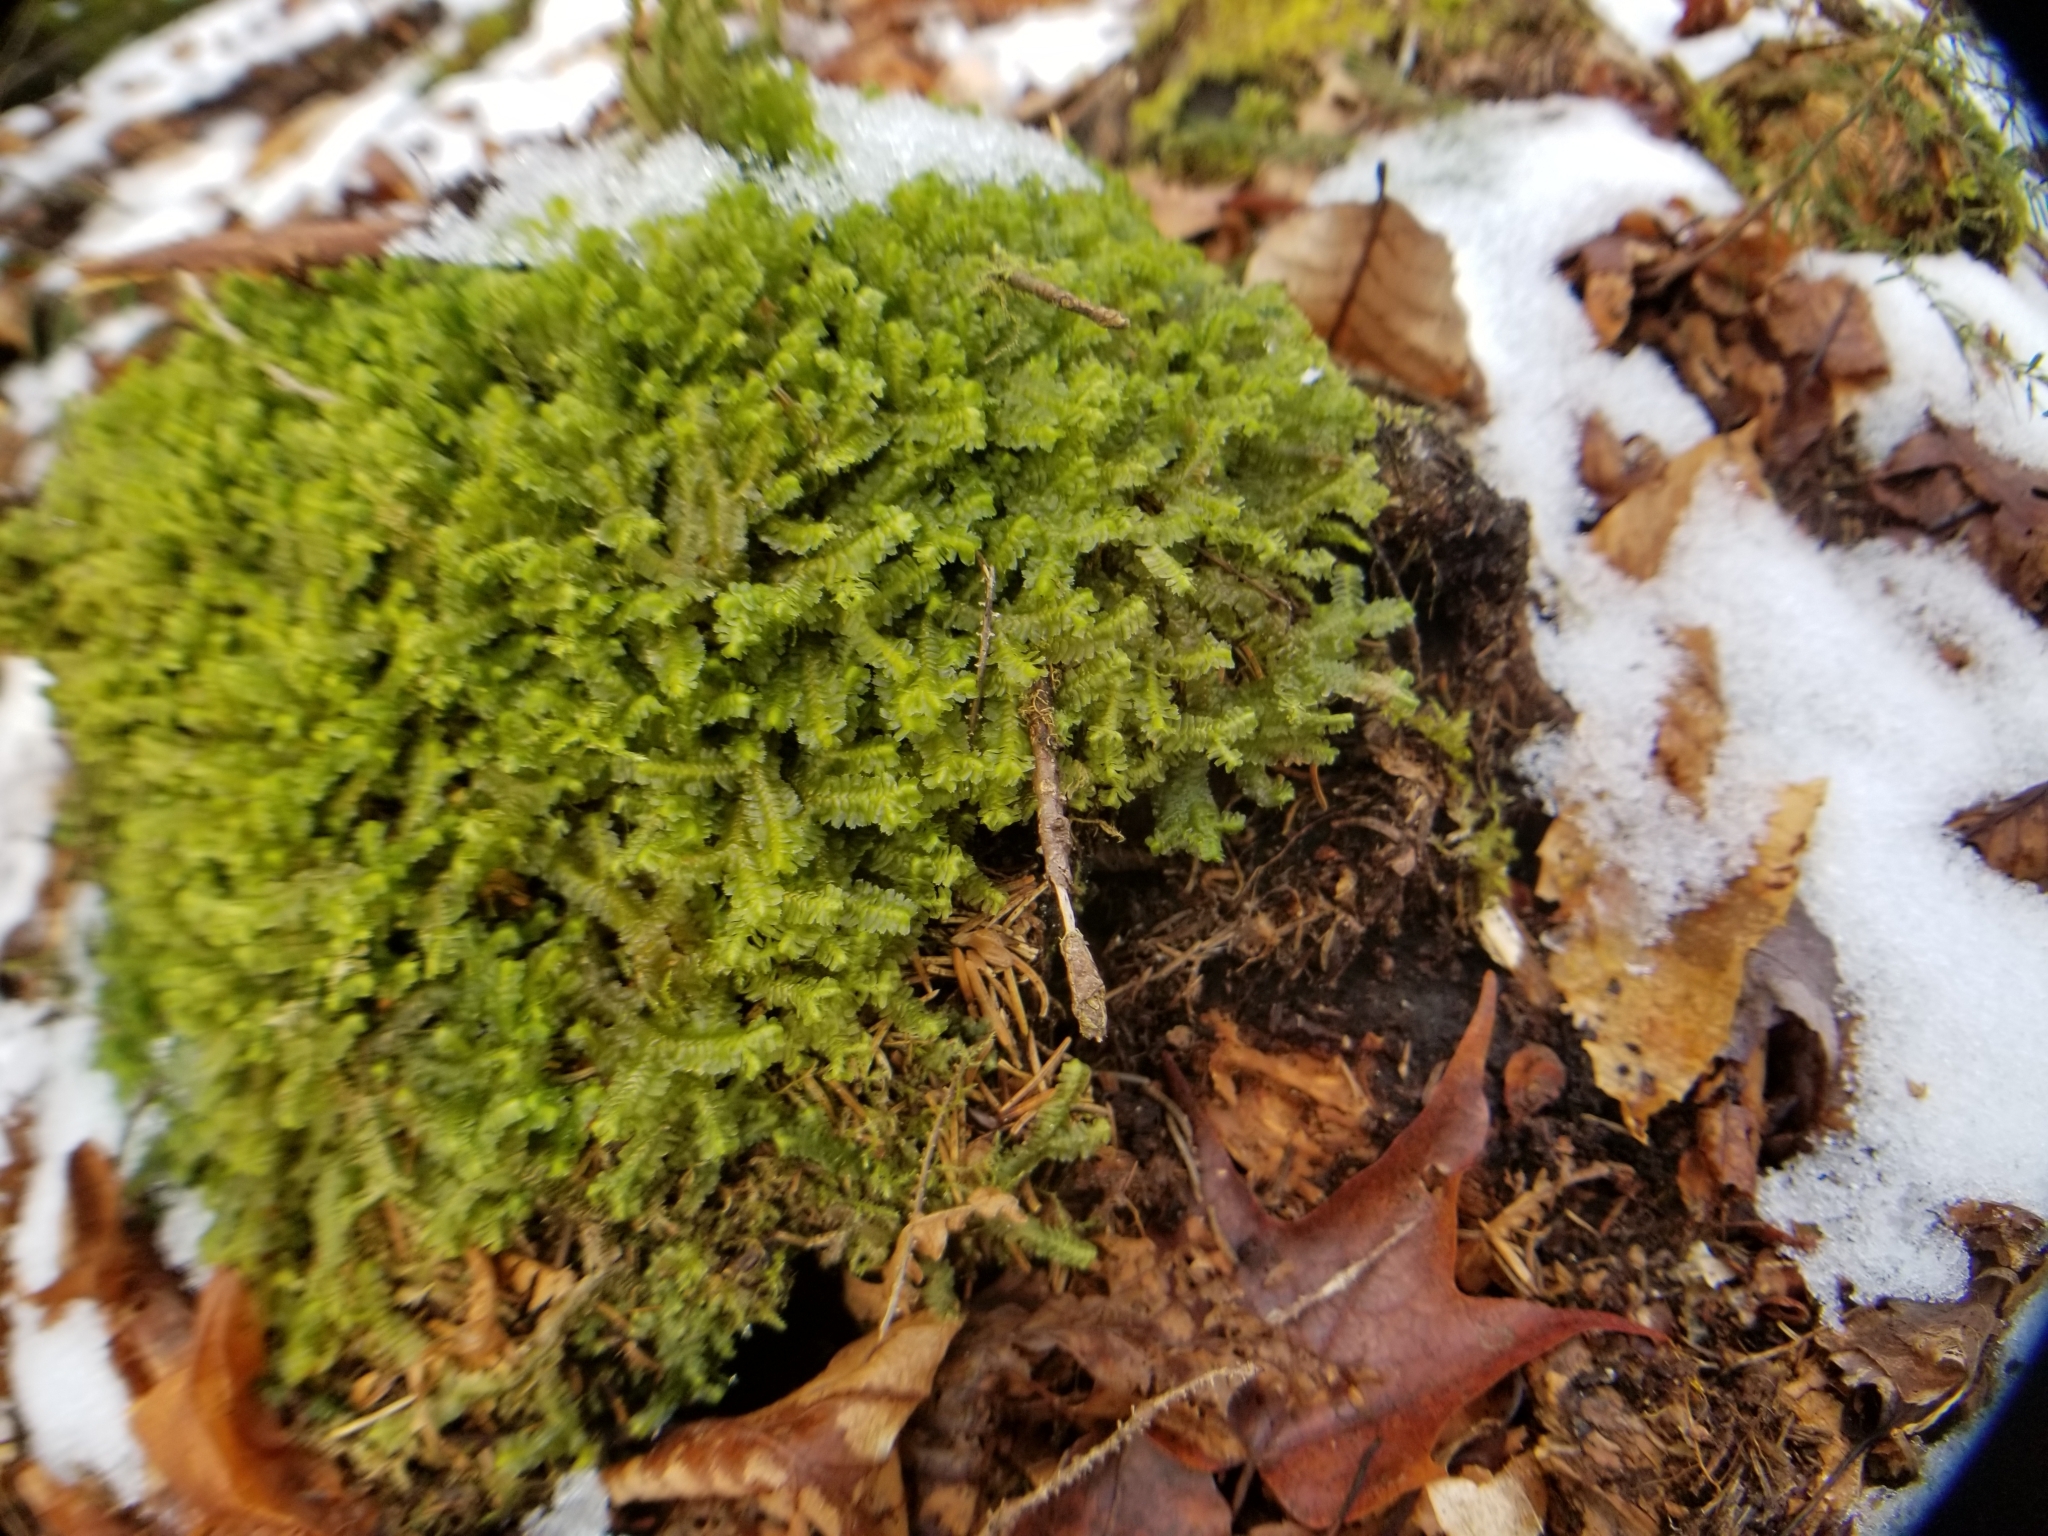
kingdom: Plantae
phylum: Marchantiophyta
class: Jungermanniopsida
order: Jungermanniales
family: Lepidoziaceae
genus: Bazzania
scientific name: Bazzania trilobata
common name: Three-lobed whipwort
